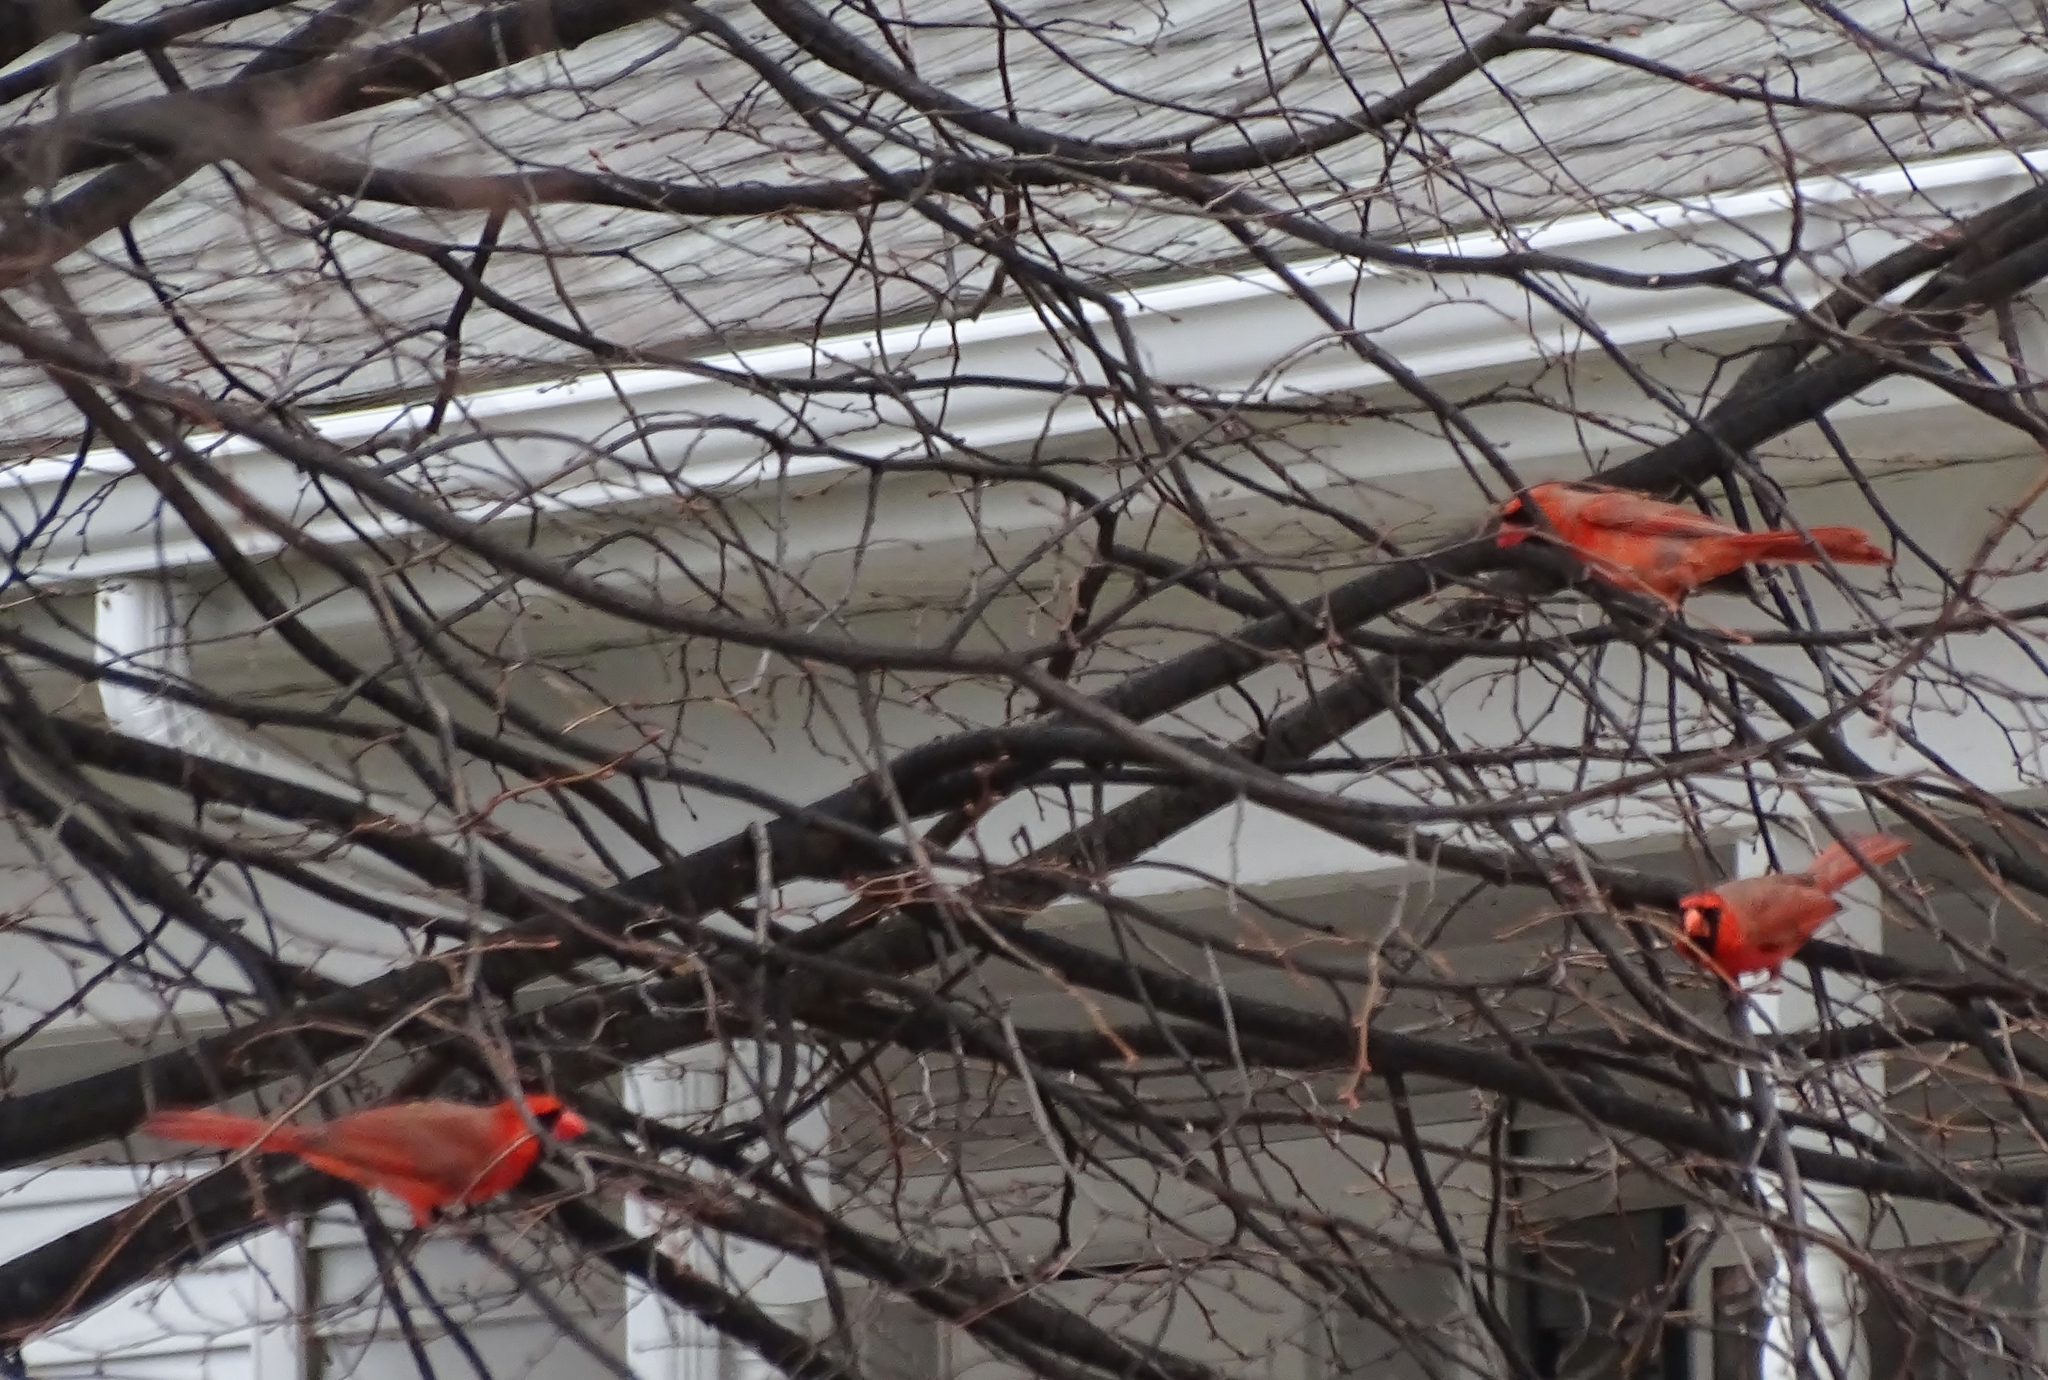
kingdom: Animalia
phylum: Chordata
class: Aves
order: Passeriformes
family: Cardinalidae
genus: Cardinalis
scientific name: Cardinalis cardinalis
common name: Northern cardinal
